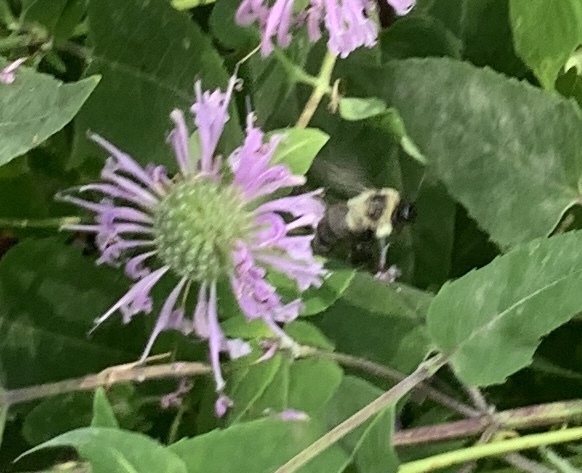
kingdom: Animalia
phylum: Arthropoda
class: Insecta
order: Hymenoptera
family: Apidae
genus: Bombus
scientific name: Bombus impatiens
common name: Common eastern bumble bee
